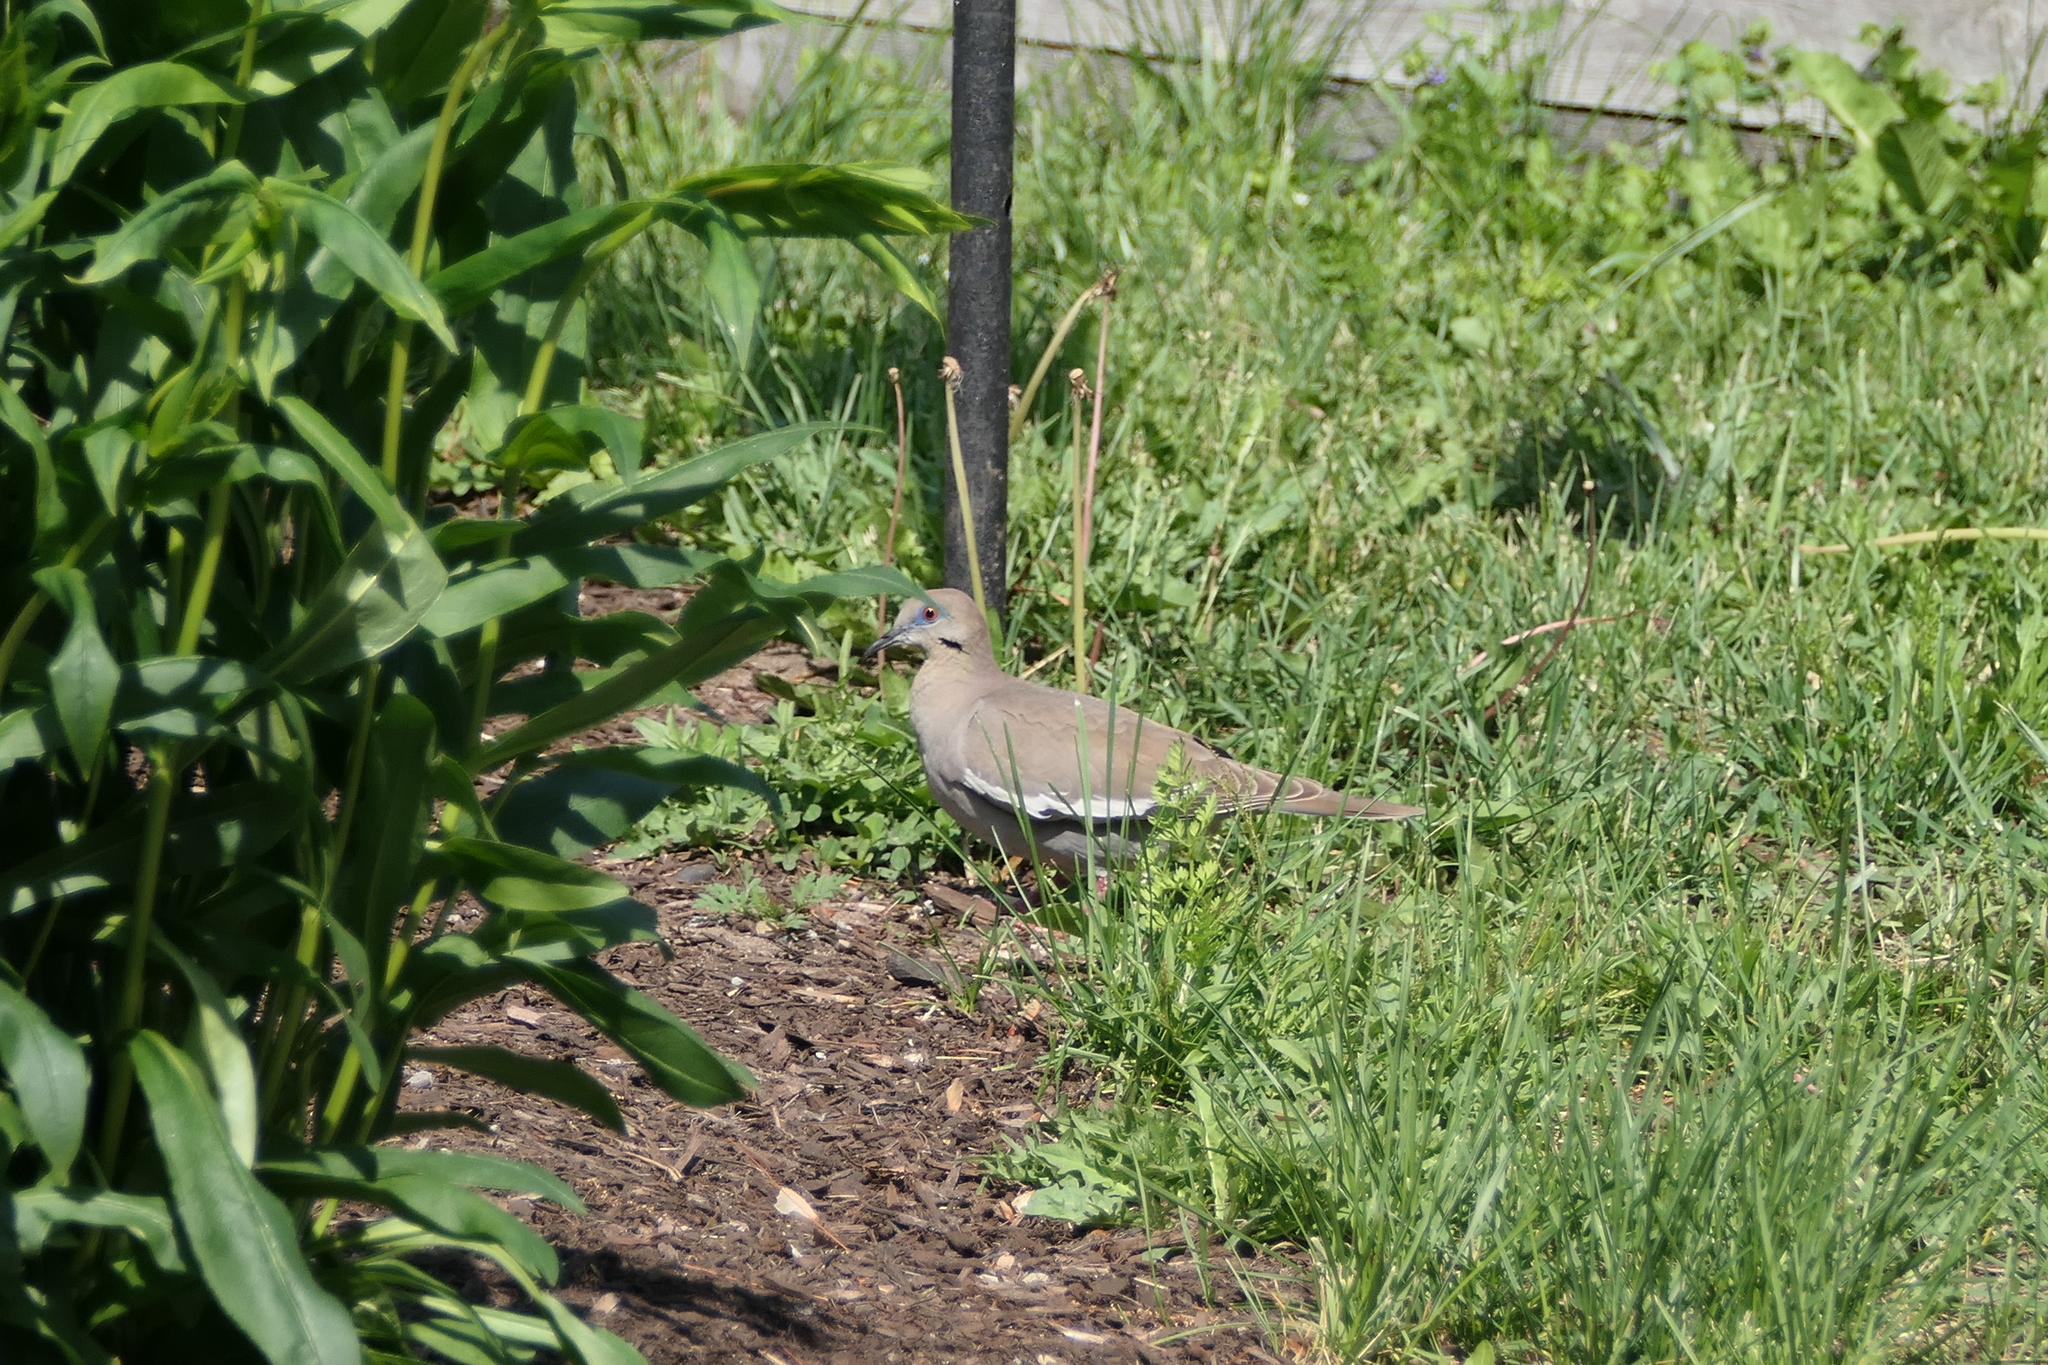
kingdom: Animalia
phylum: Chordata
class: Aves
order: Columbiformes
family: Columbidae
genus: Zenaida
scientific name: Zenaida asiatica
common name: White-winged dove
